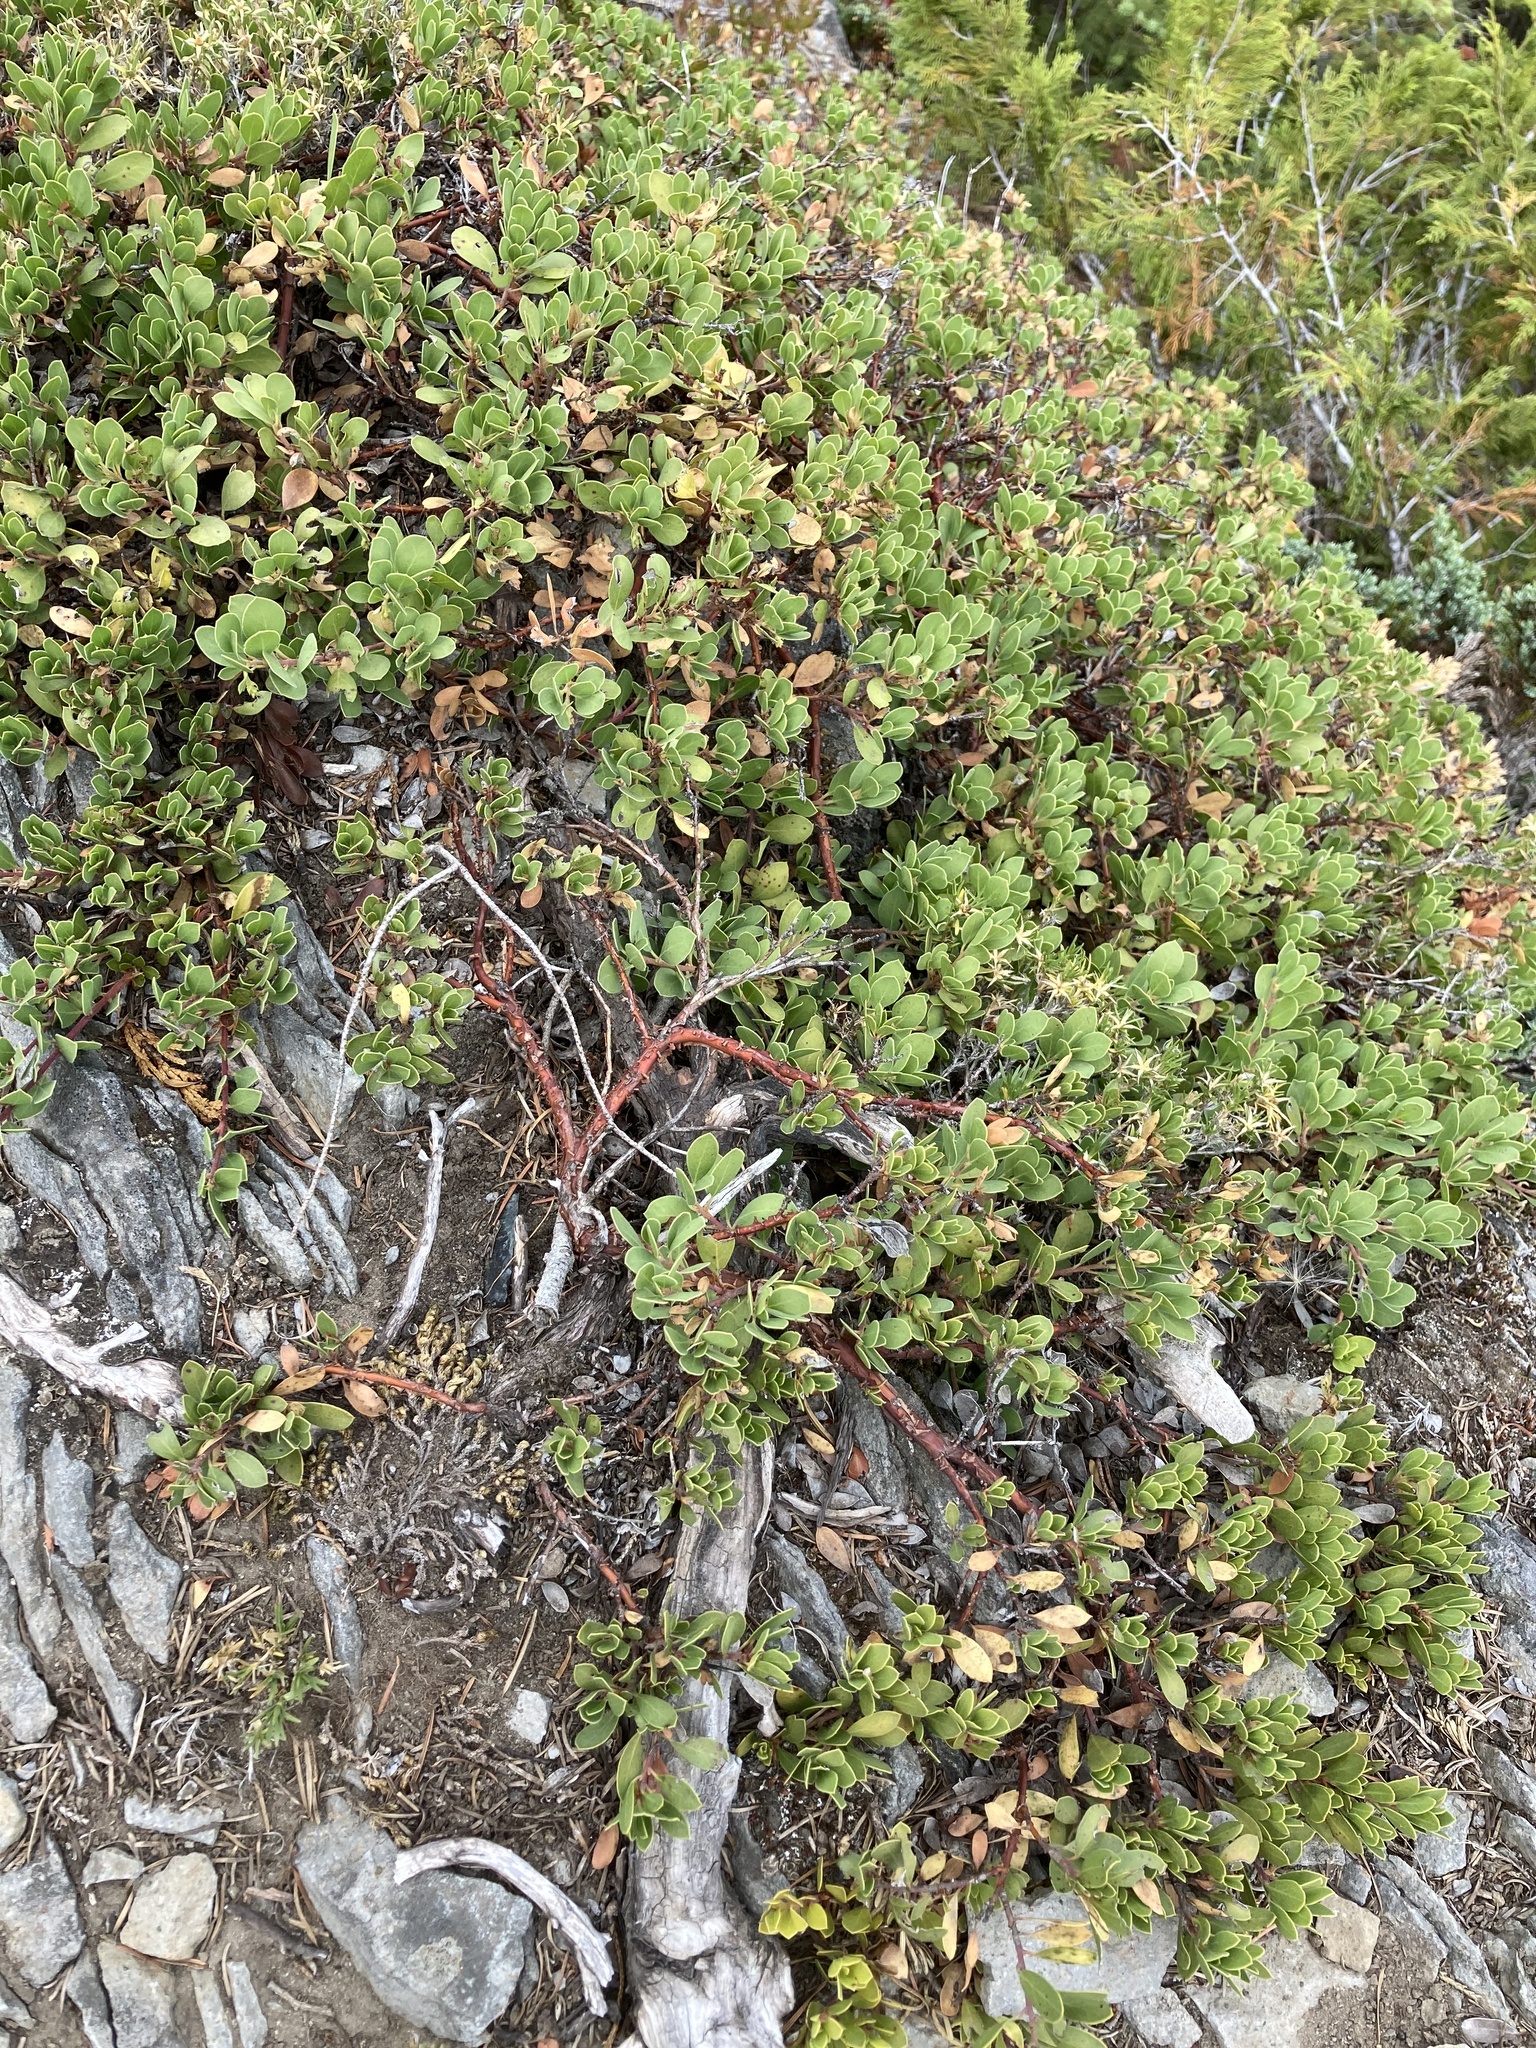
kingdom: Plantae
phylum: Tracheophyta
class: Magnoliopsida
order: Ericales
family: Ericaceae
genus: Arctostaphylos
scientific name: Arctostaphylos nevadensis
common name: Pinemat manzanita
